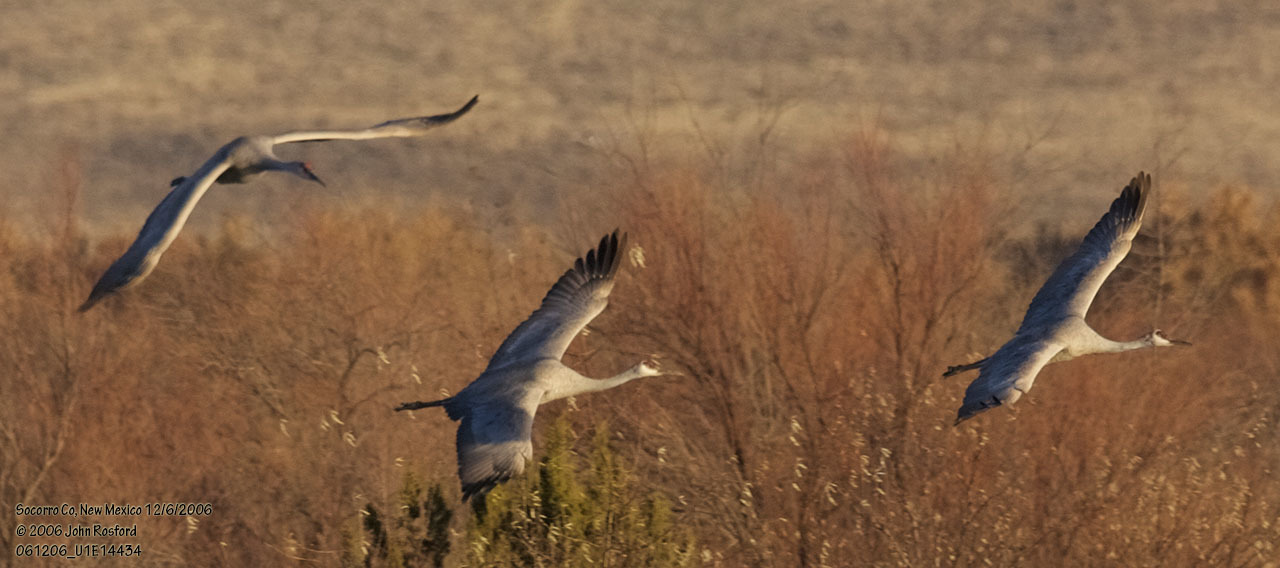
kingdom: Animalia
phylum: Chordata
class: Aves
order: Gruiformes
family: Gruidae
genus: Grus
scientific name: Grus canadensis
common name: Sandhill crane
